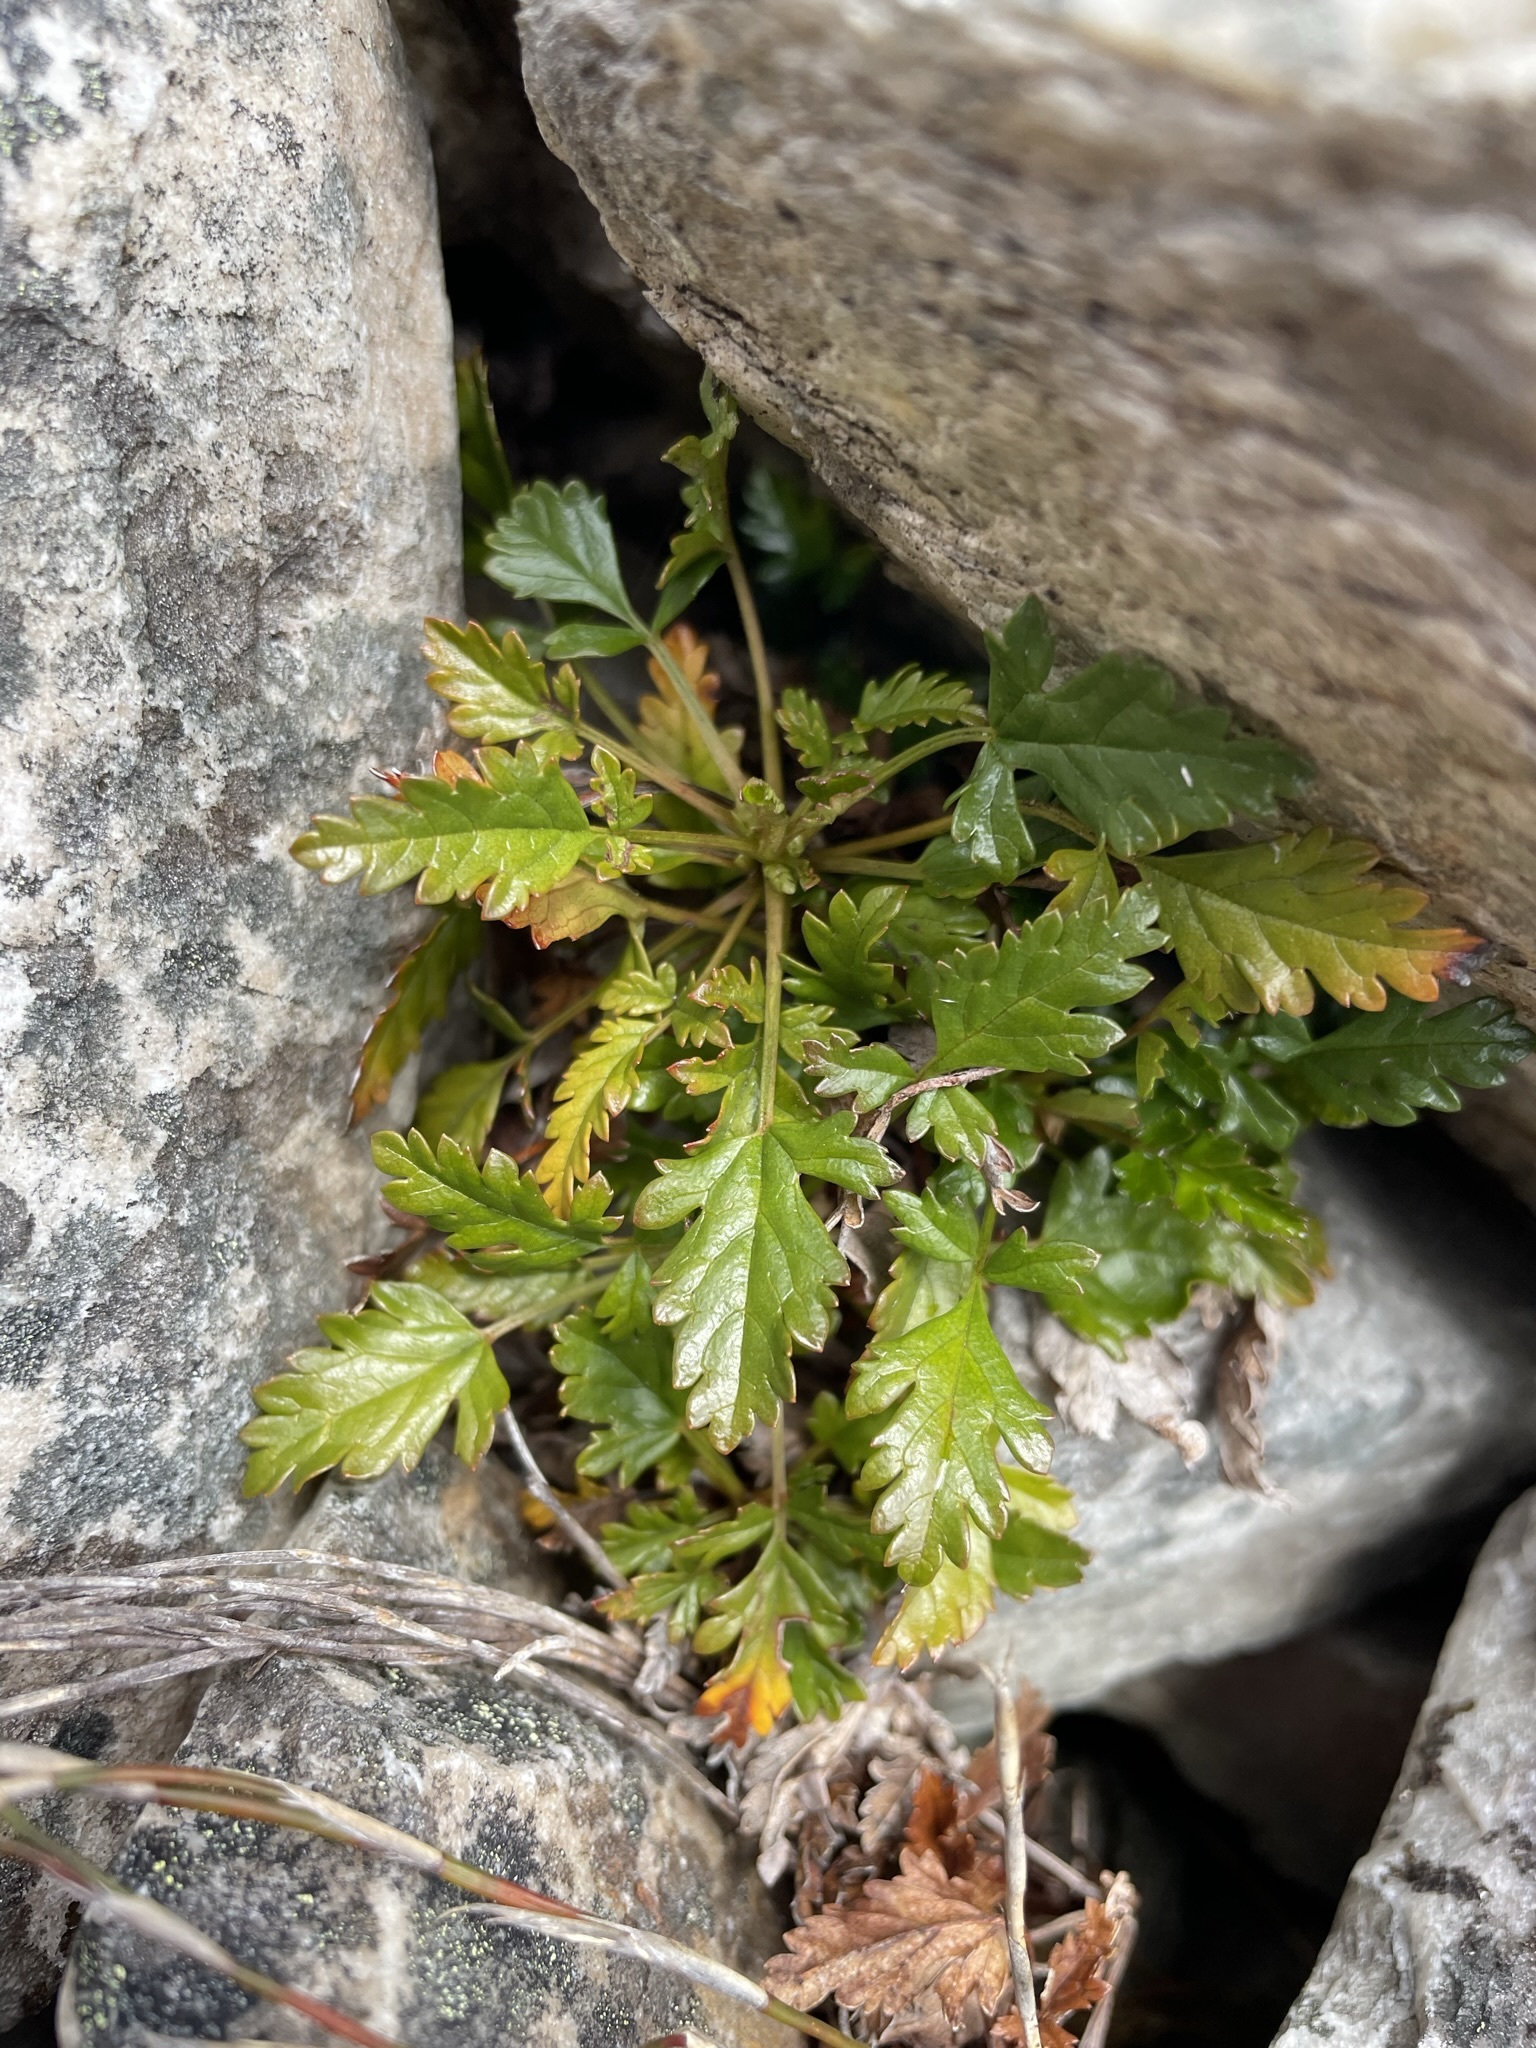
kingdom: Plantae
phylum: Tracheophyta
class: Magnoliopsida
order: Rosales
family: Rosaceae
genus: Rubus
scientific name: Rubus gunnianus
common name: Mountain raspberry
